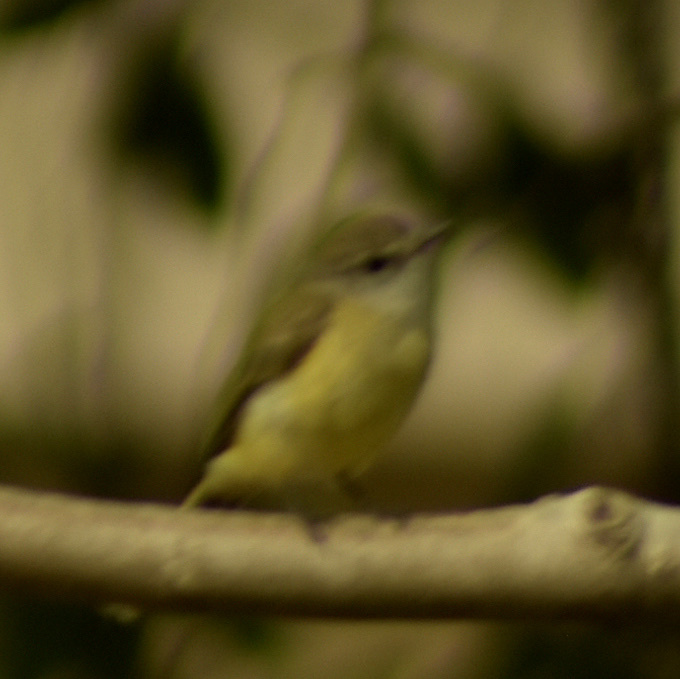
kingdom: Animalia
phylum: Chordata
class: Aves
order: Passeriformes
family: Petroicidae
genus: Microeca
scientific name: Microeca flavigaster
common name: Lemon-bellied flyrobin
